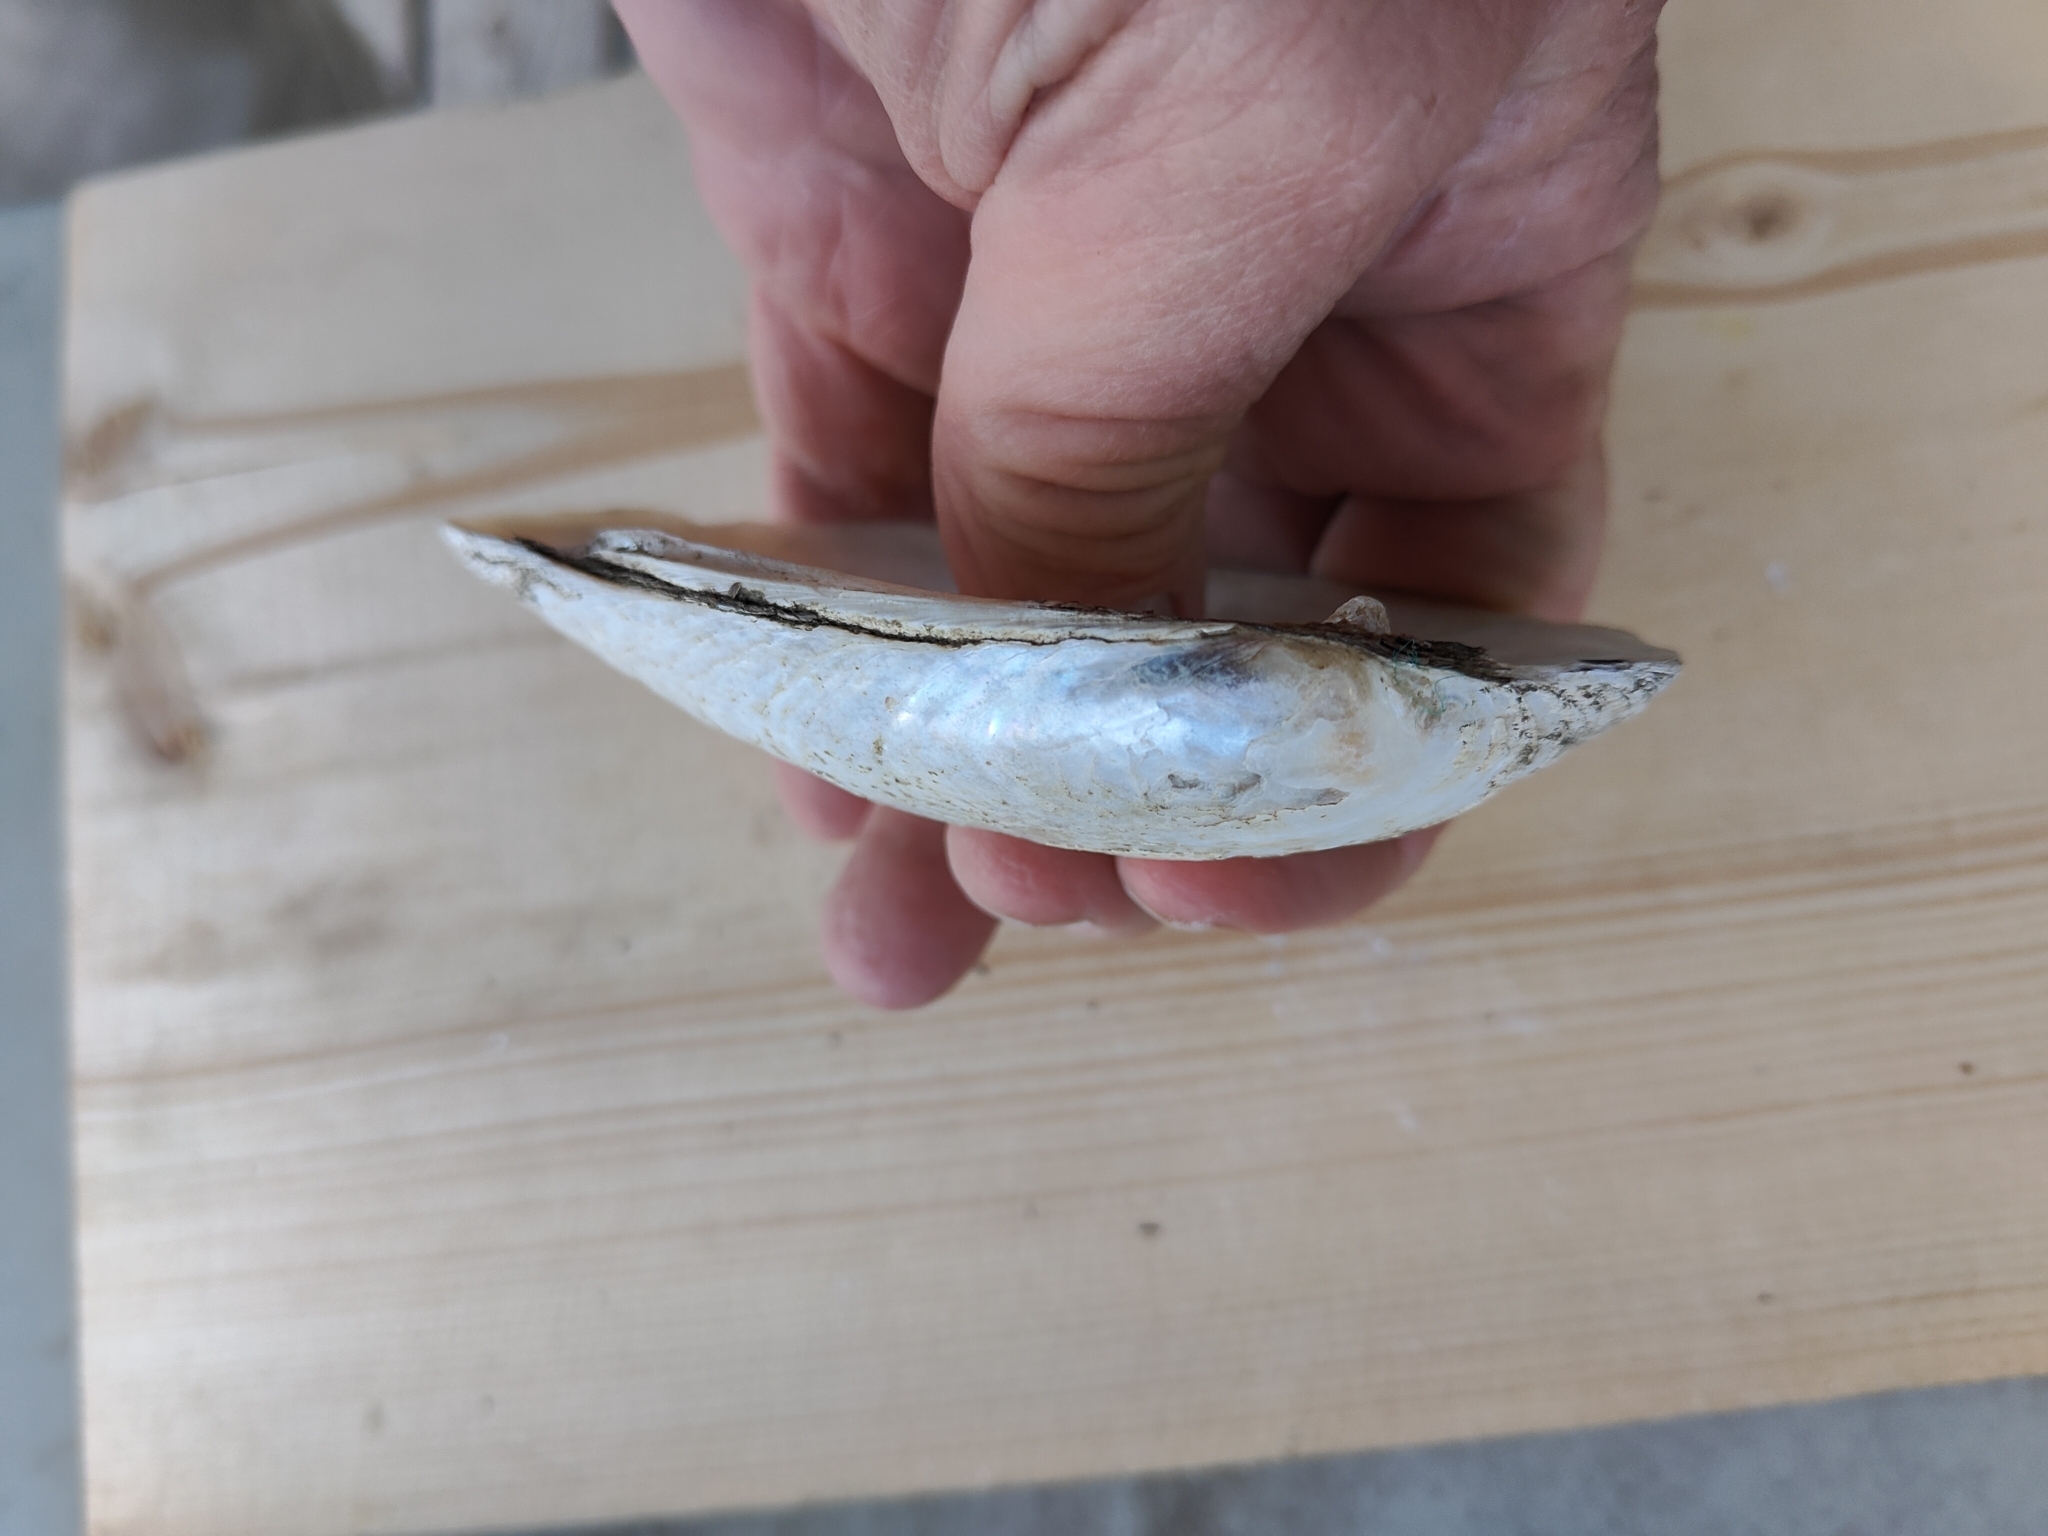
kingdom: Animalia
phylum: Mollusca
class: Bivalvia
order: Unionida
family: Unionidae
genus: Lampsilis
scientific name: Lampsilis siliquoidea
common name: Fatmucket
